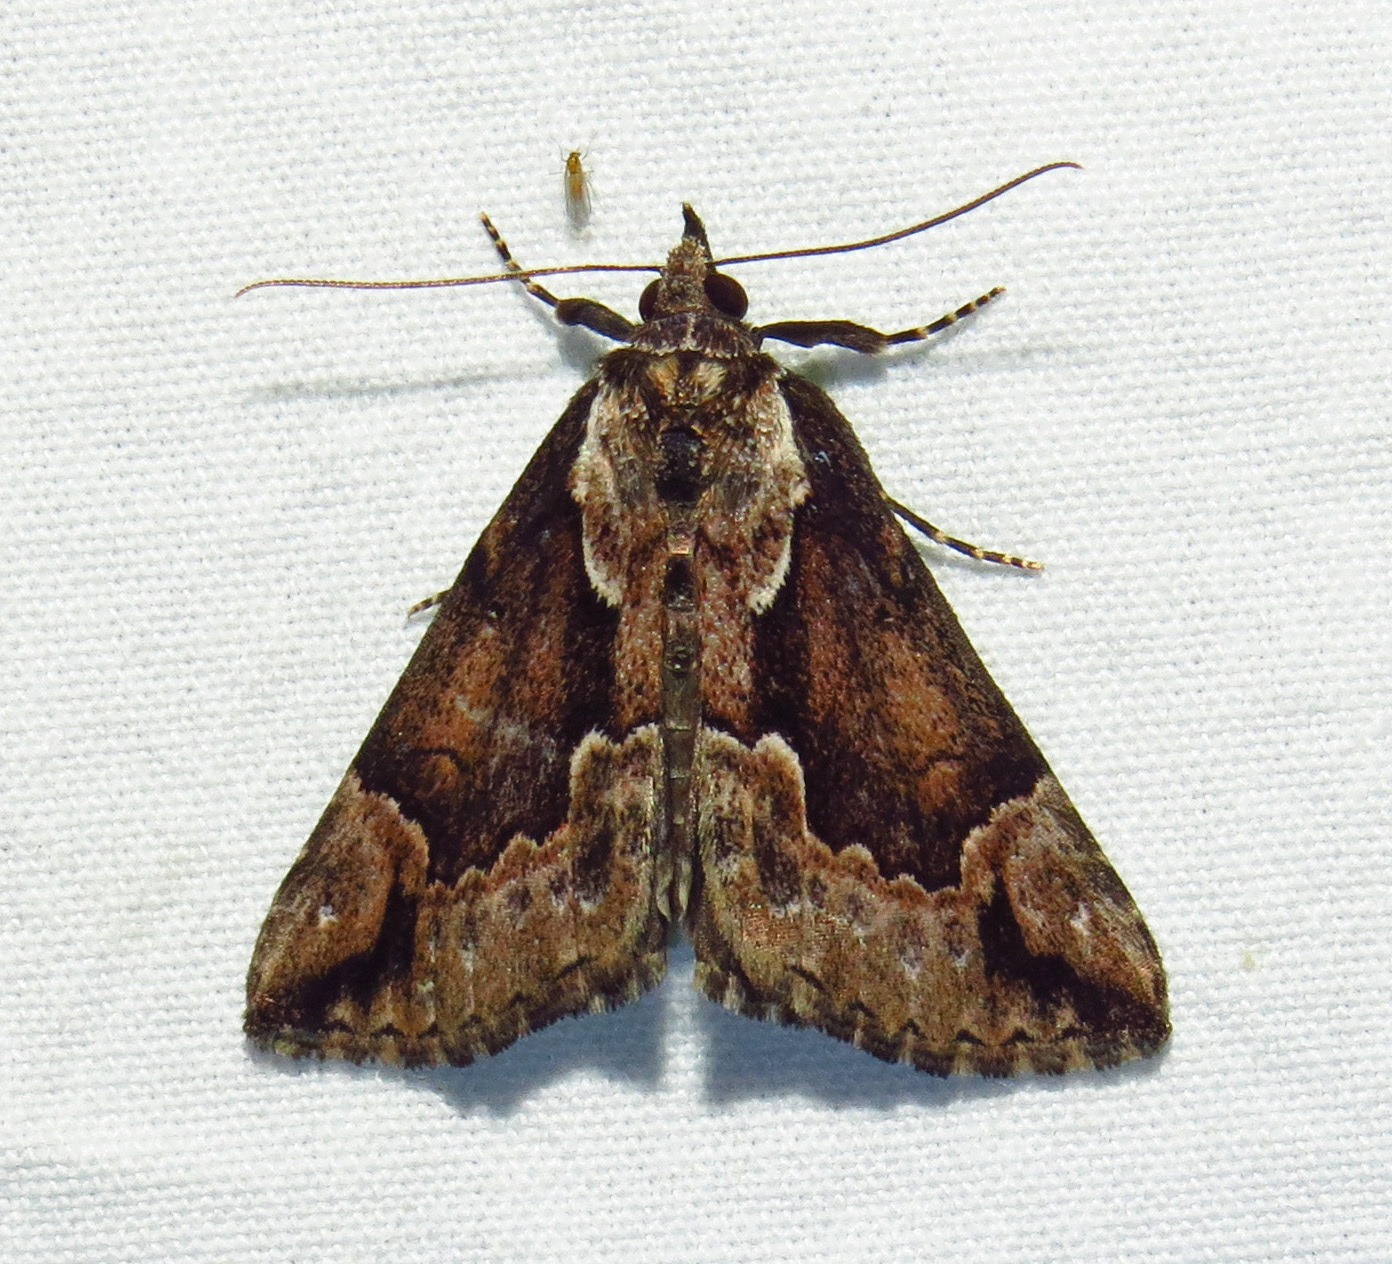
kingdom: Animalia
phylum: Arthropoda
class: Insecta
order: Lepidoptera
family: Erebidae
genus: Hypena
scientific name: Hypena baltimoralis
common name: Baltimore snout
